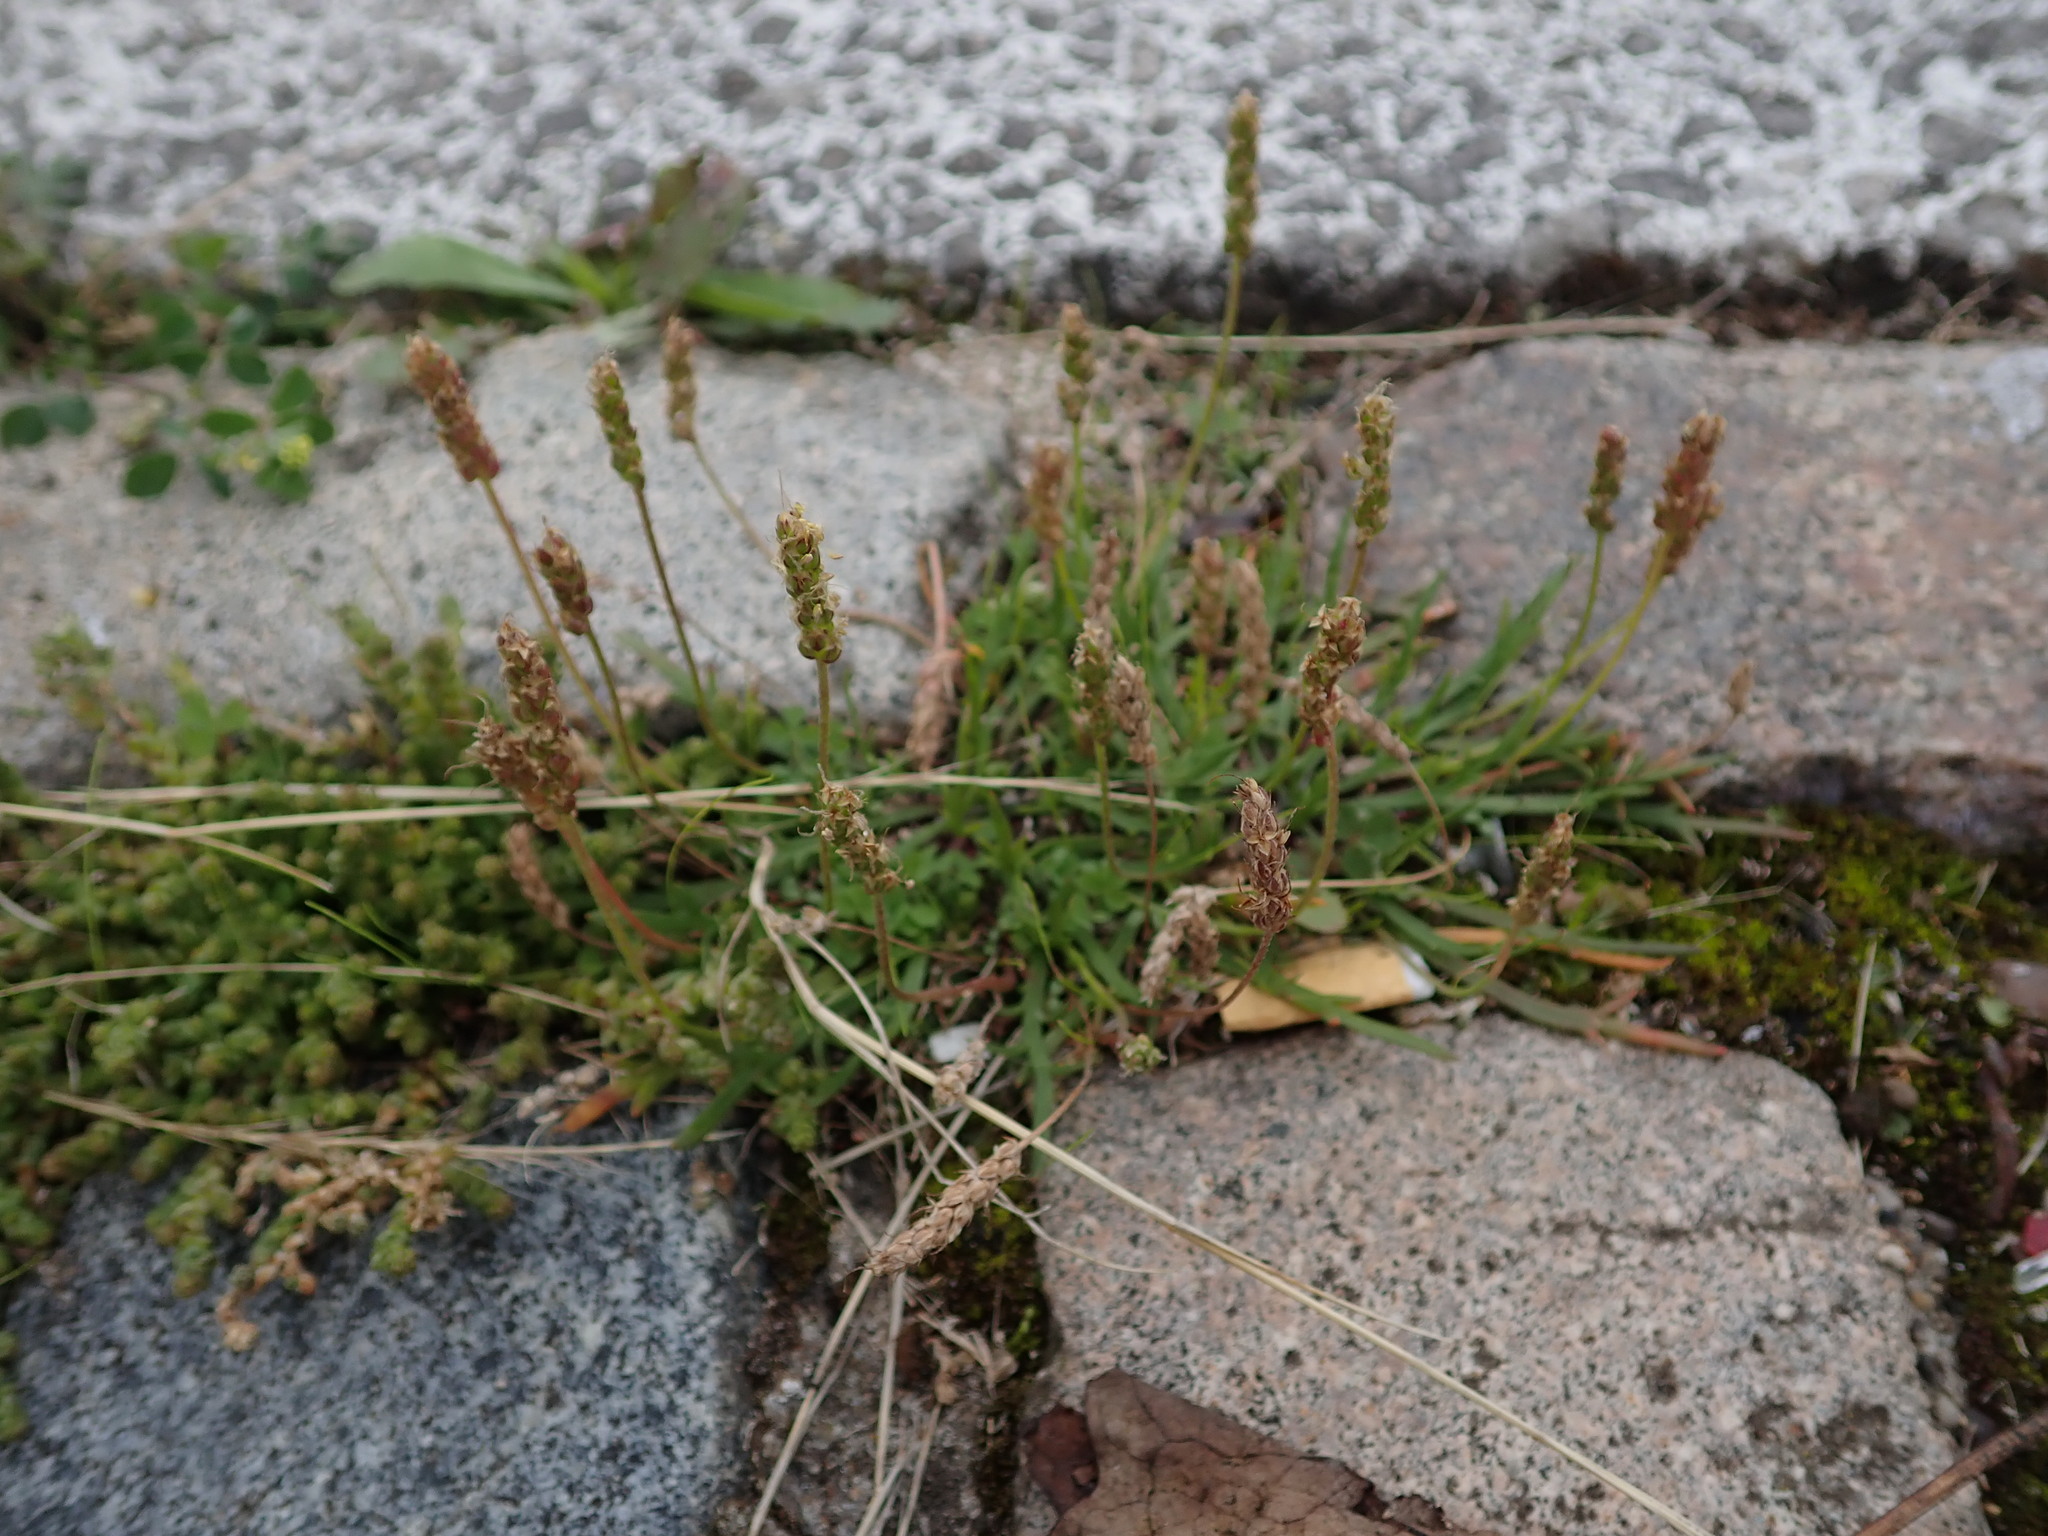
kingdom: Plantae
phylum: Tracheophyta
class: Magnoliopsida
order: Lamiales
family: Plantaginaceae
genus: Plantago
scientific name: Plantago coronopus
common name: Buck's-horn plantain
